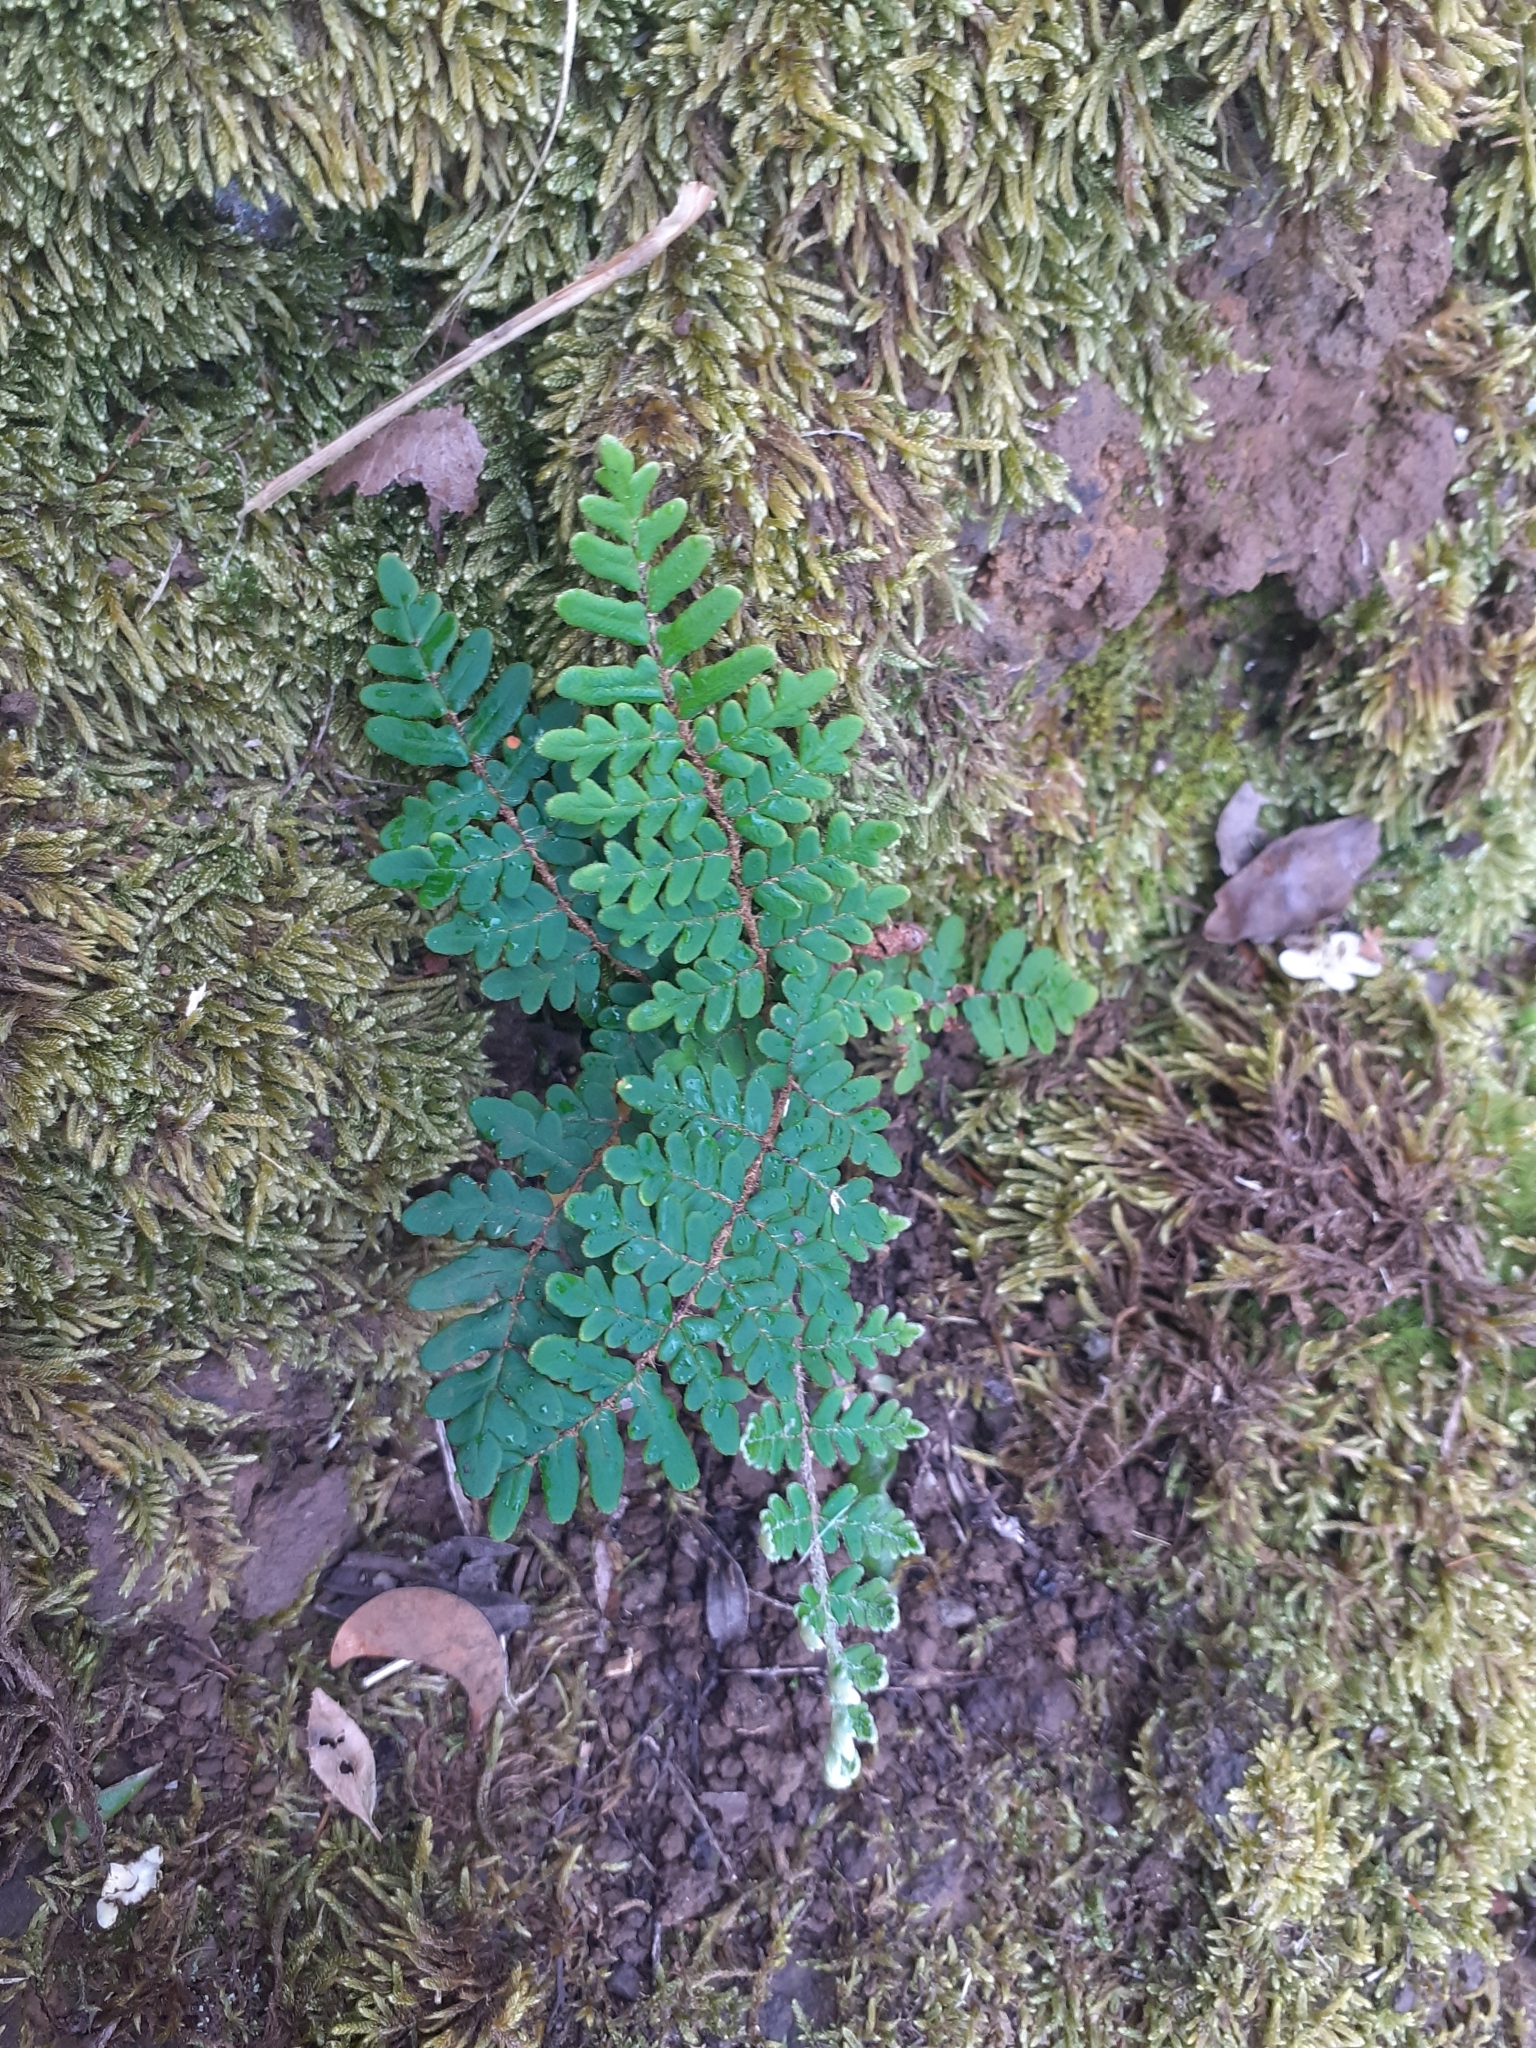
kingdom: Plantae
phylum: Tracheophyta
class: Polypodiopsida
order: Polypodiales
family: Pteridaceae
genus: Paragymnopteris
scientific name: Paragymnopteris marantae
